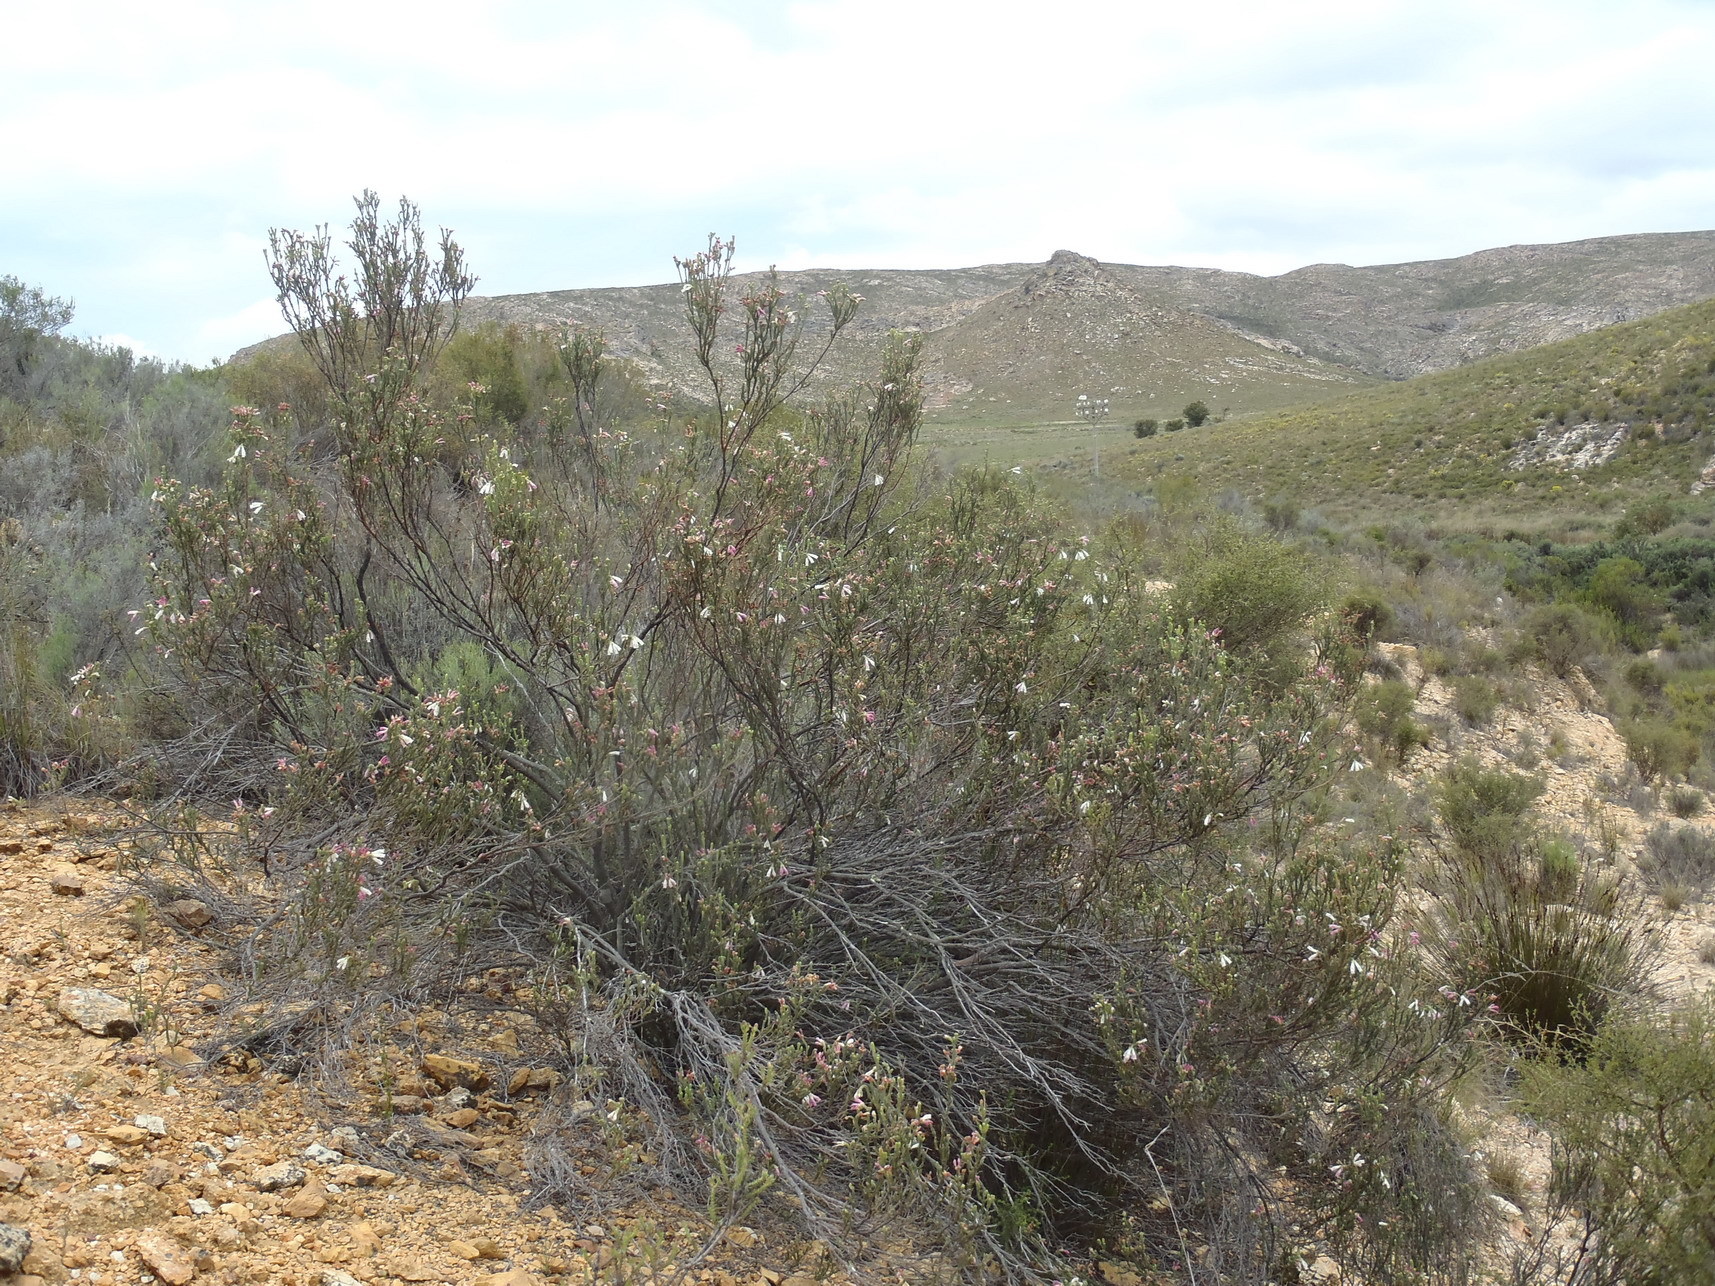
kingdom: Plantae
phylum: Tracheophyta
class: Magnoliopsida
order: Ericales
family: Ericaceae
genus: Erica
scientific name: Erica pectinifolia
